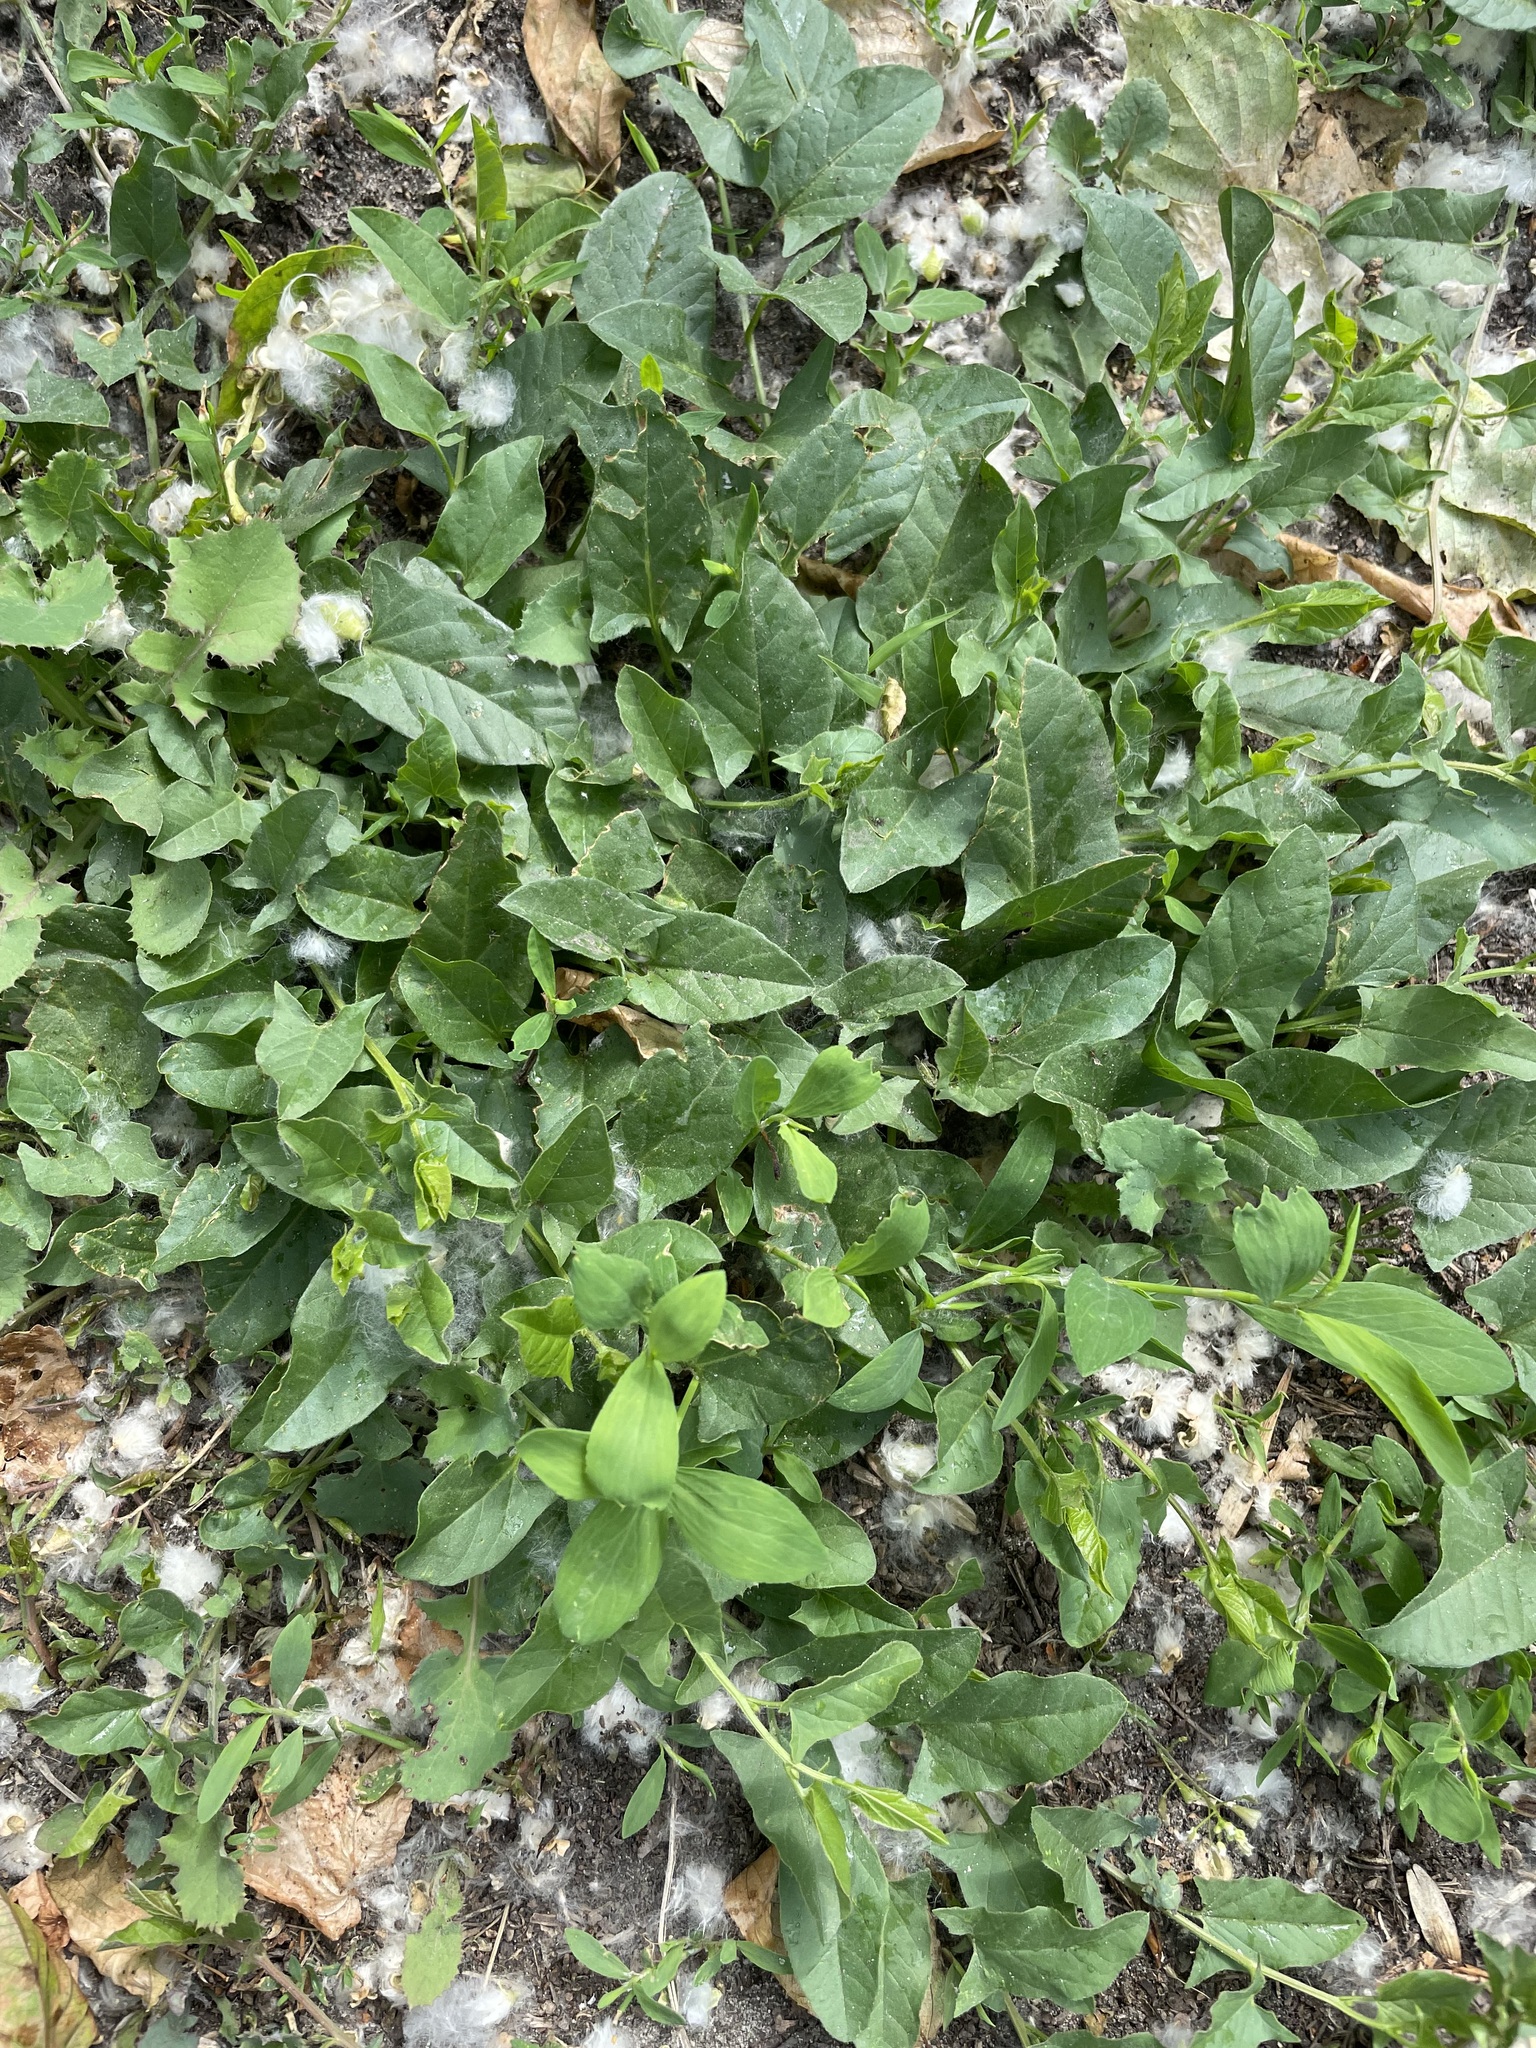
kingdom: Plantae
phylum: Tracheophyta
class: Magnoliopsida
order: Solanales
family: Convolvulaceae
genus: Convolvulus
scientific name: Convolvulus arvensis
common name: Field bindweed
